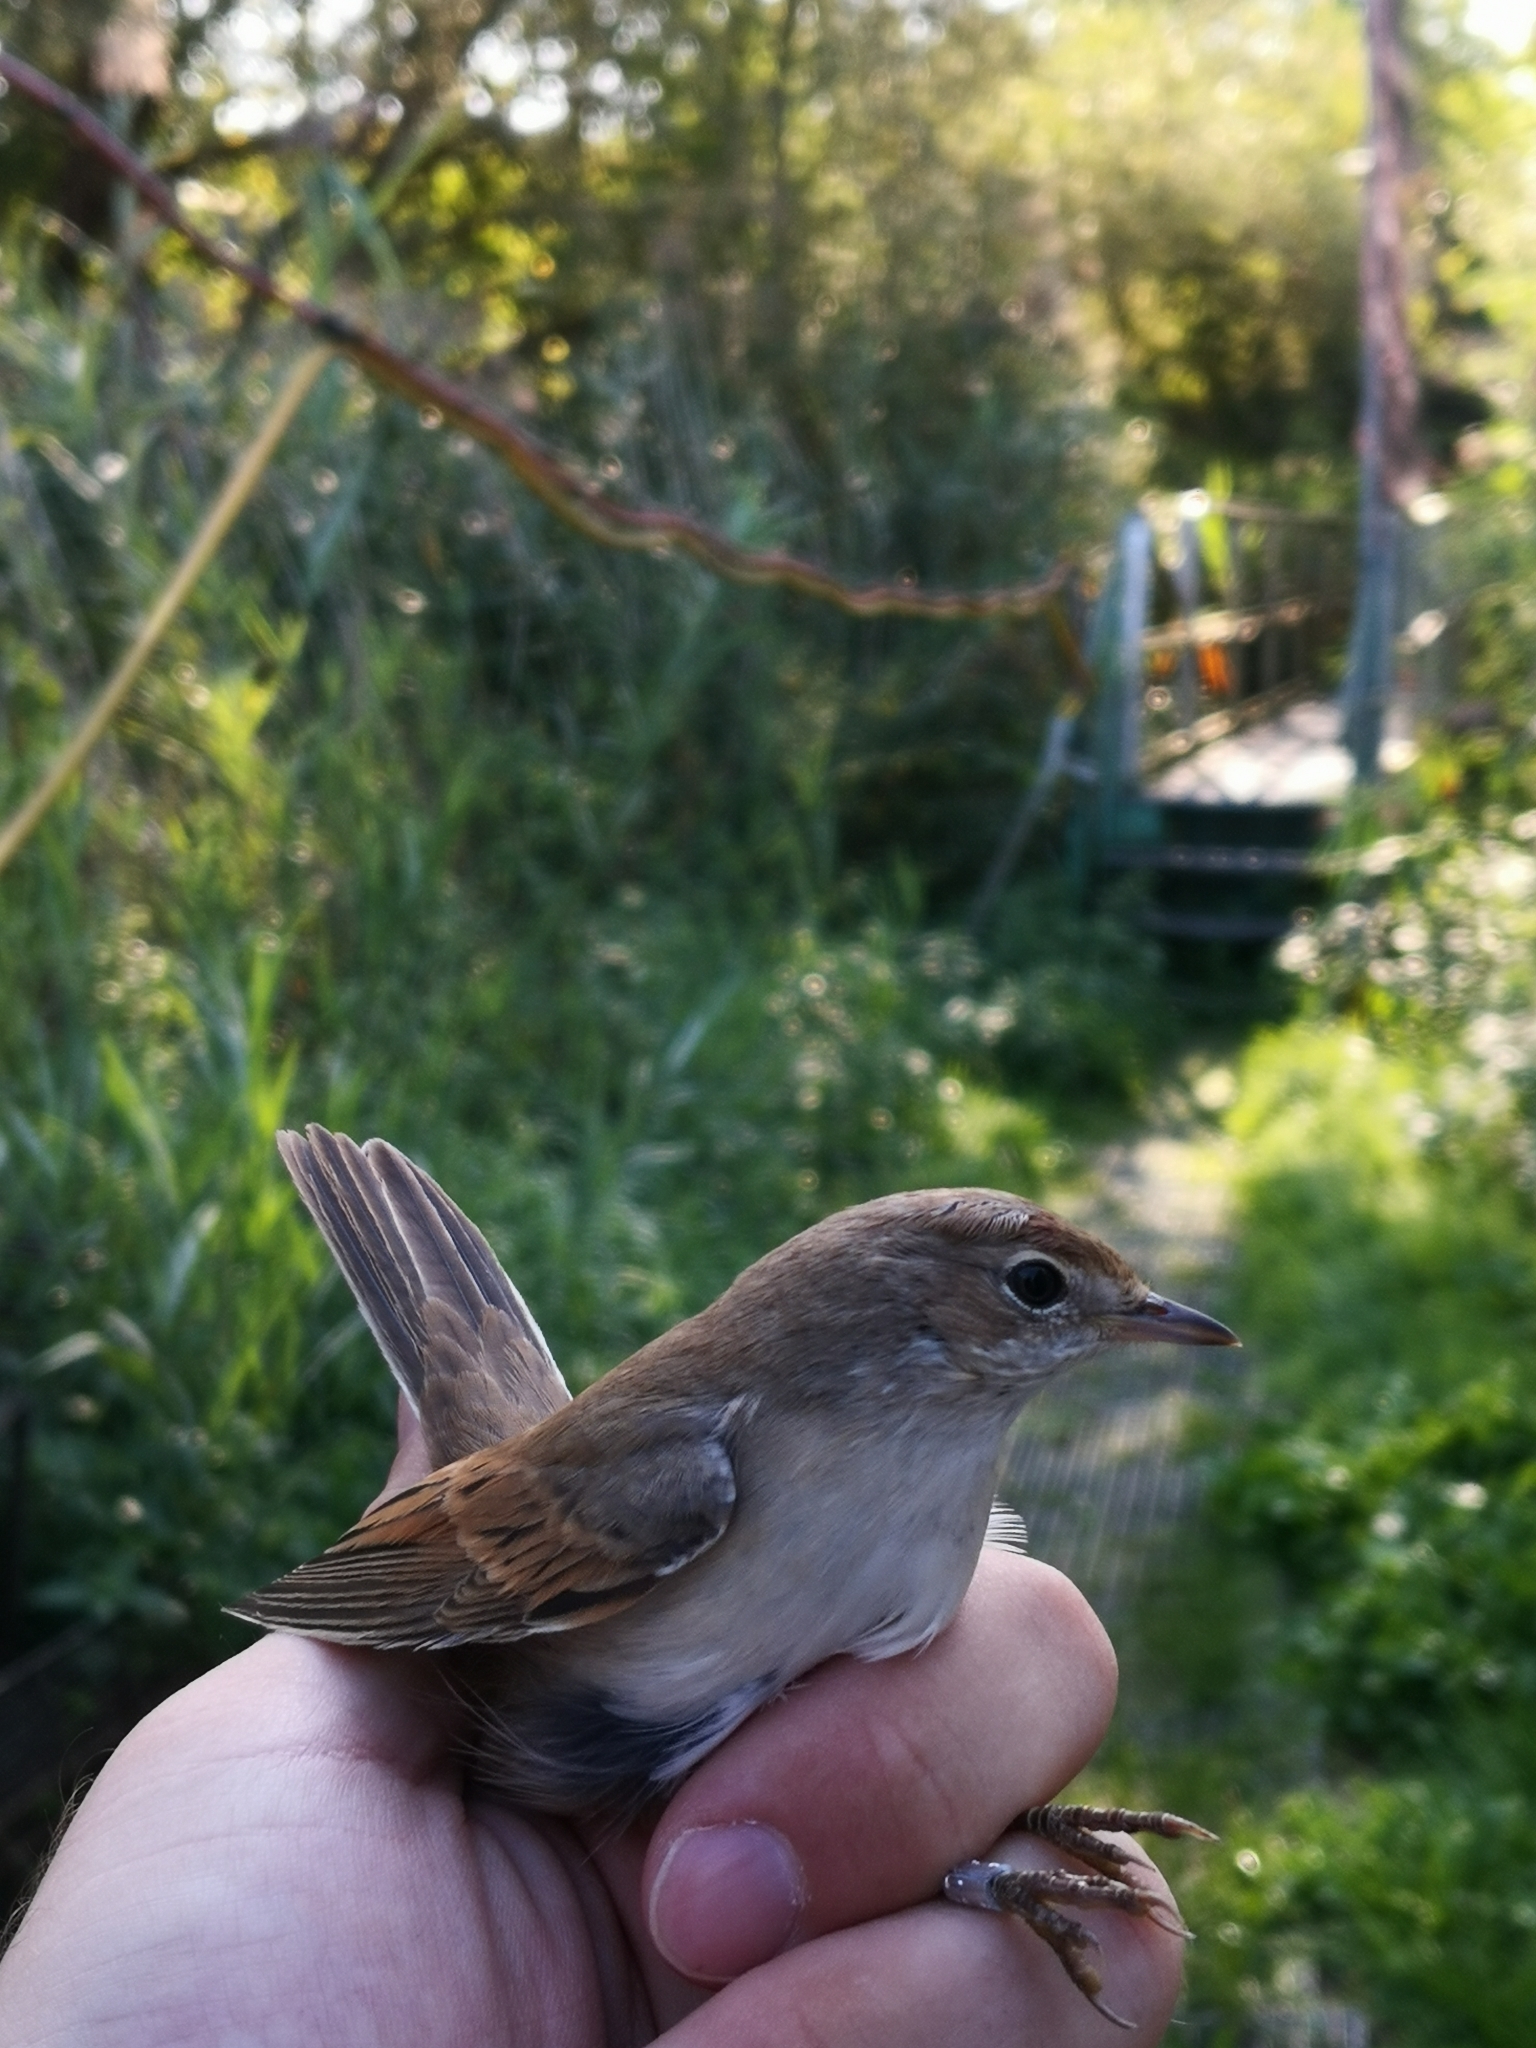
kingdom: Animalia
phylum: Chordata
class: Aves
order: Passeriformes
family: Sylviidae
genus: Sylvia
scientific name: Sylvia communis
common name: Common whitethroat
